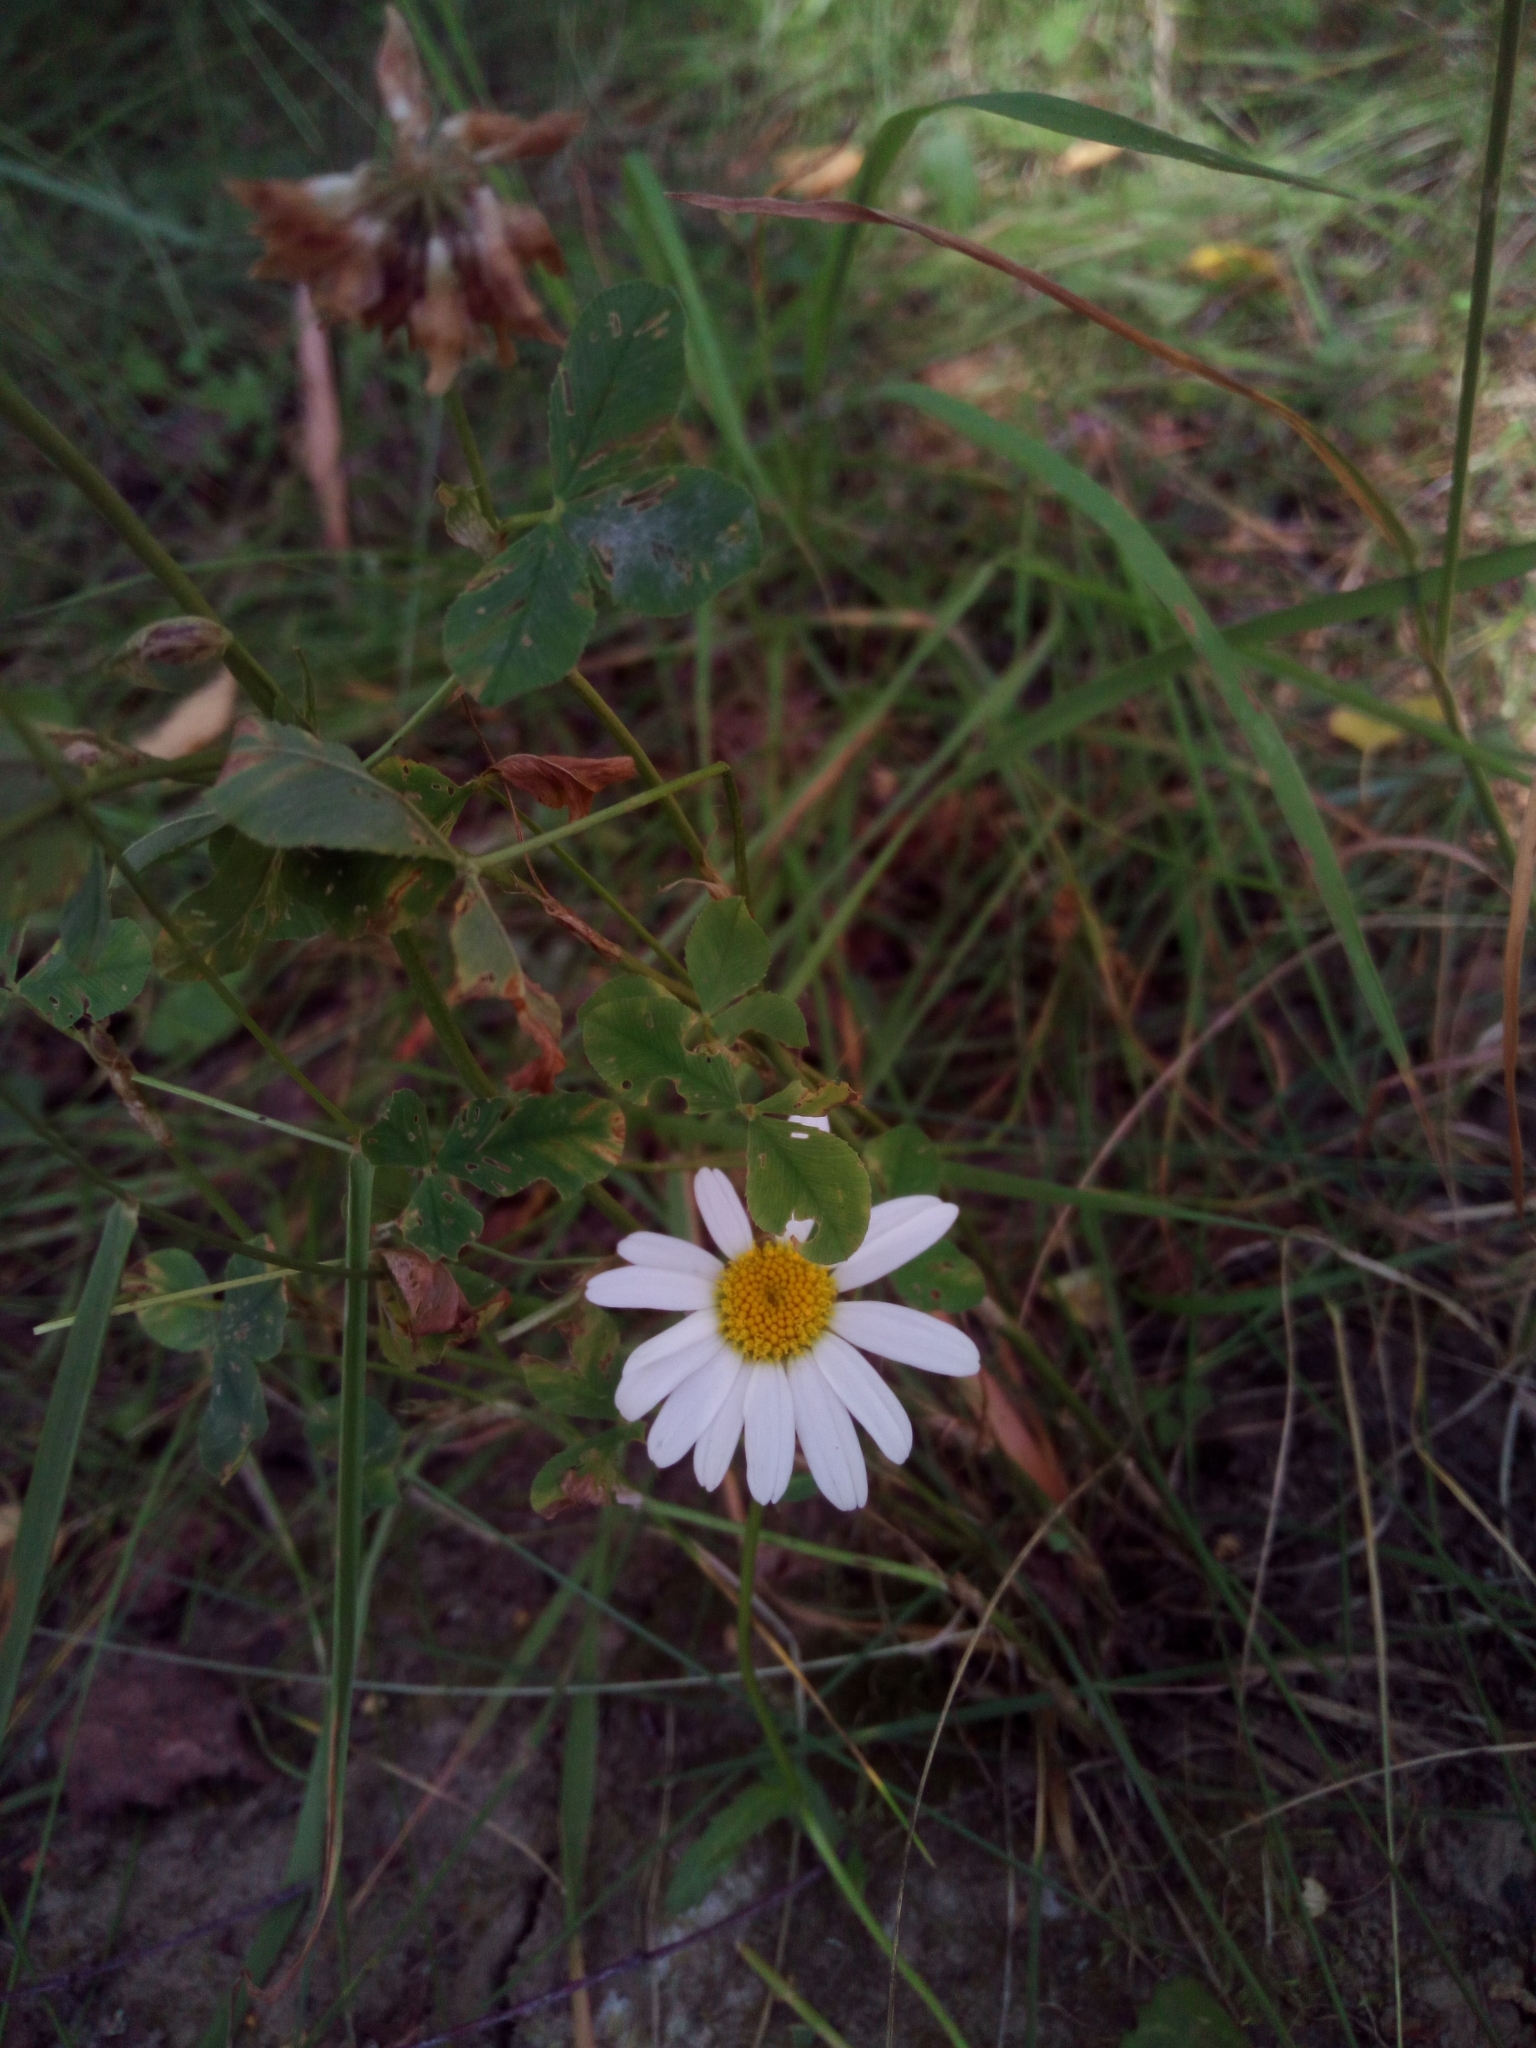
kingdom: Plantae
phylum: Tracheophyta
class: Magnoliopsida
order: Asterales
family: Asteraceae
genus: Leucanthemum
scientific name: Leucanthemum vulgare
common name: Oxeye daisy
